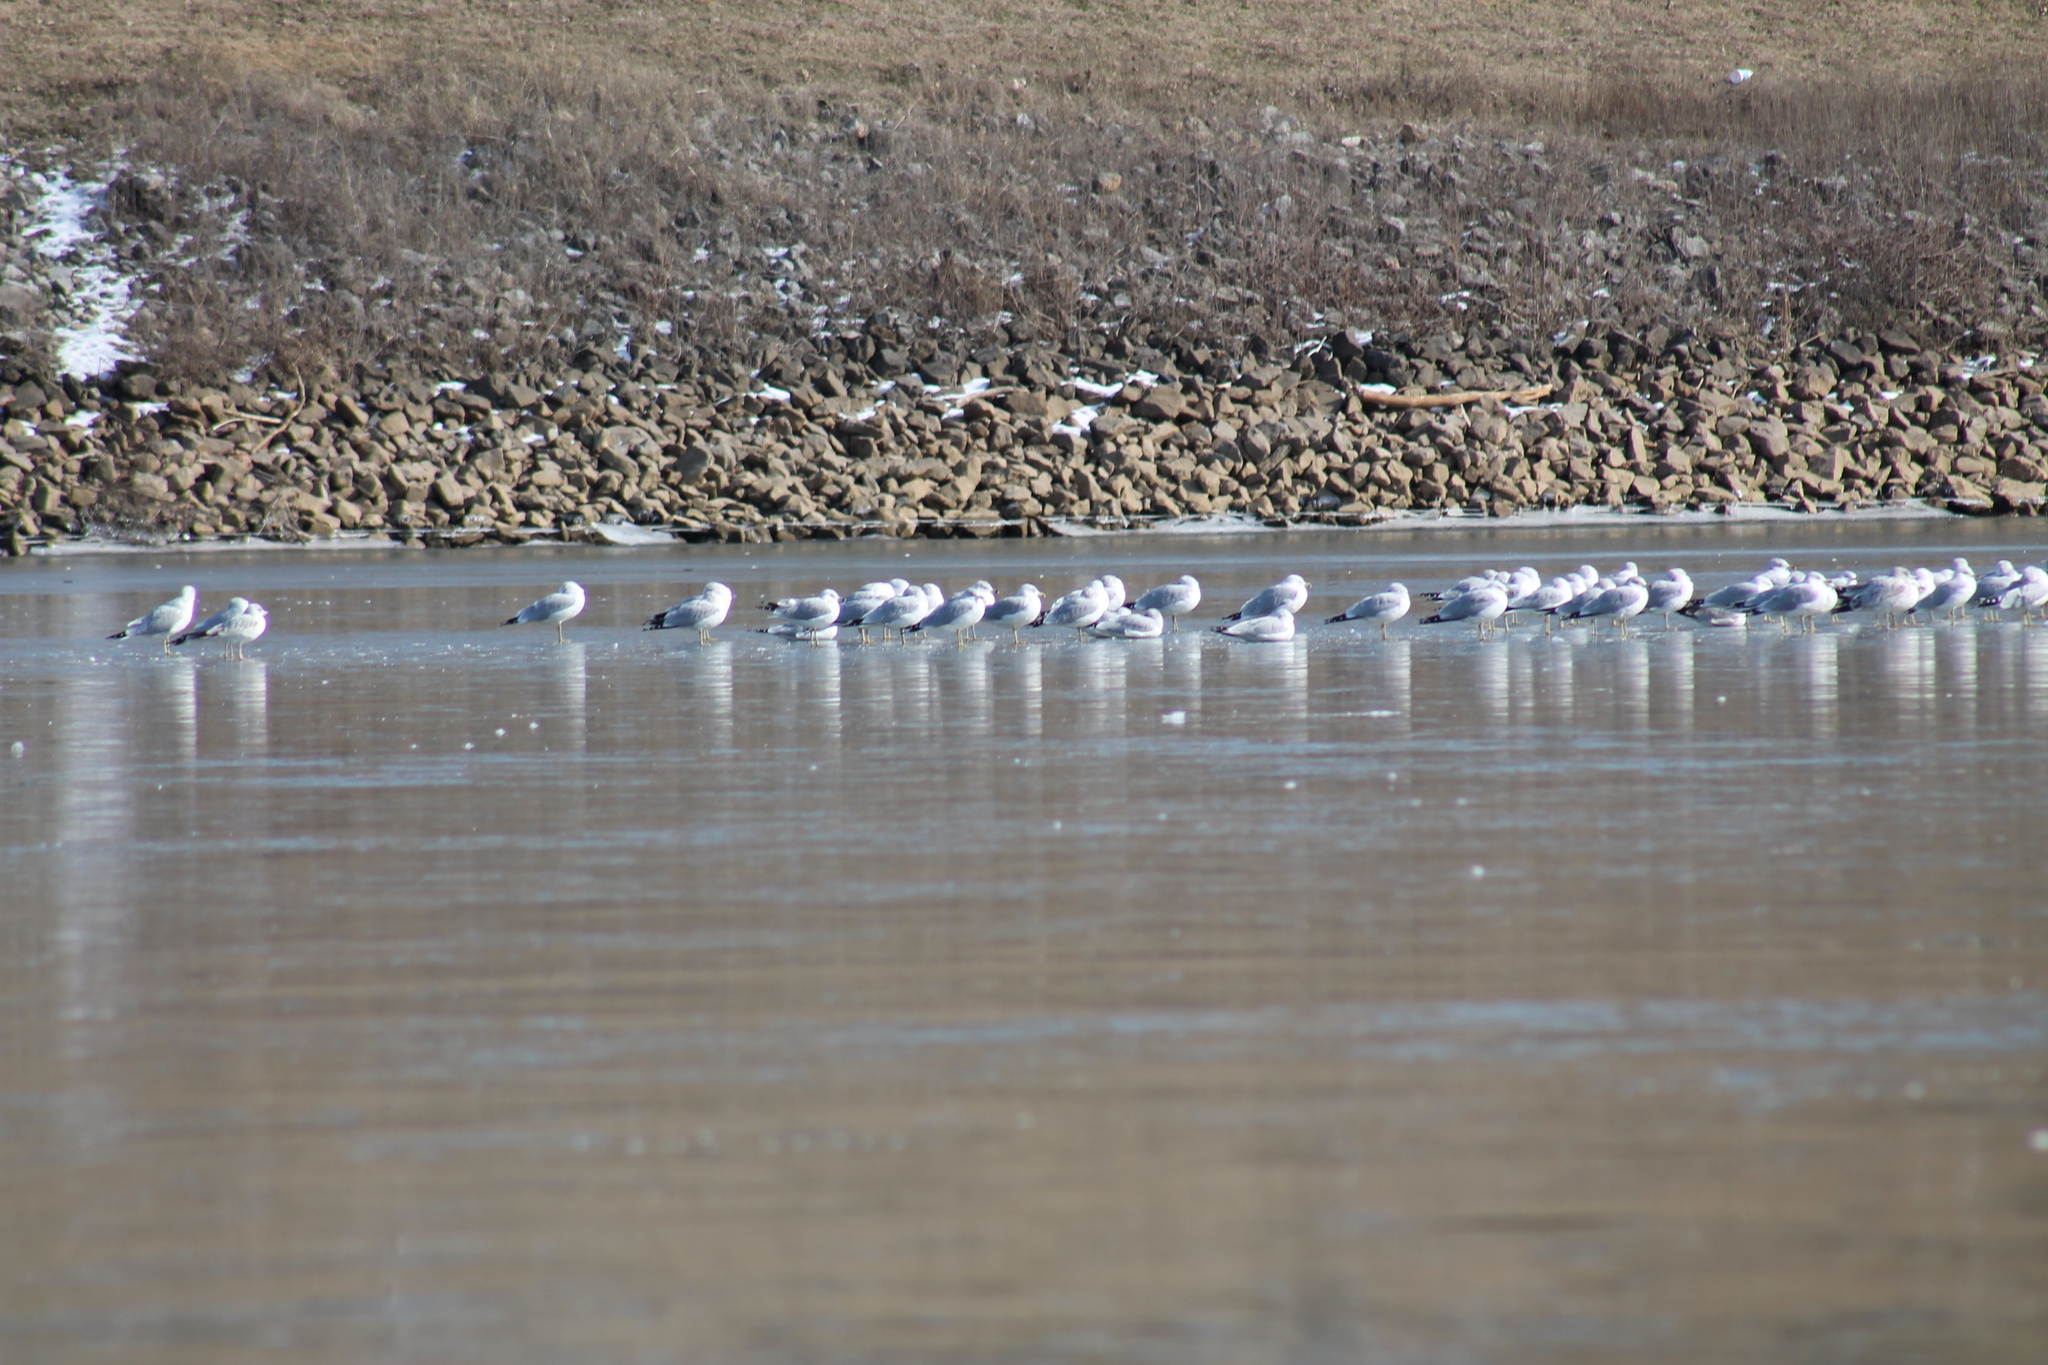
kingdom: Animalia
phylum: Chordata
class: Aves
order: Charadriiformes
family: Laridae
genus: Larus
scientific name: Larus delawarensis
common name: Ring-billed gull
